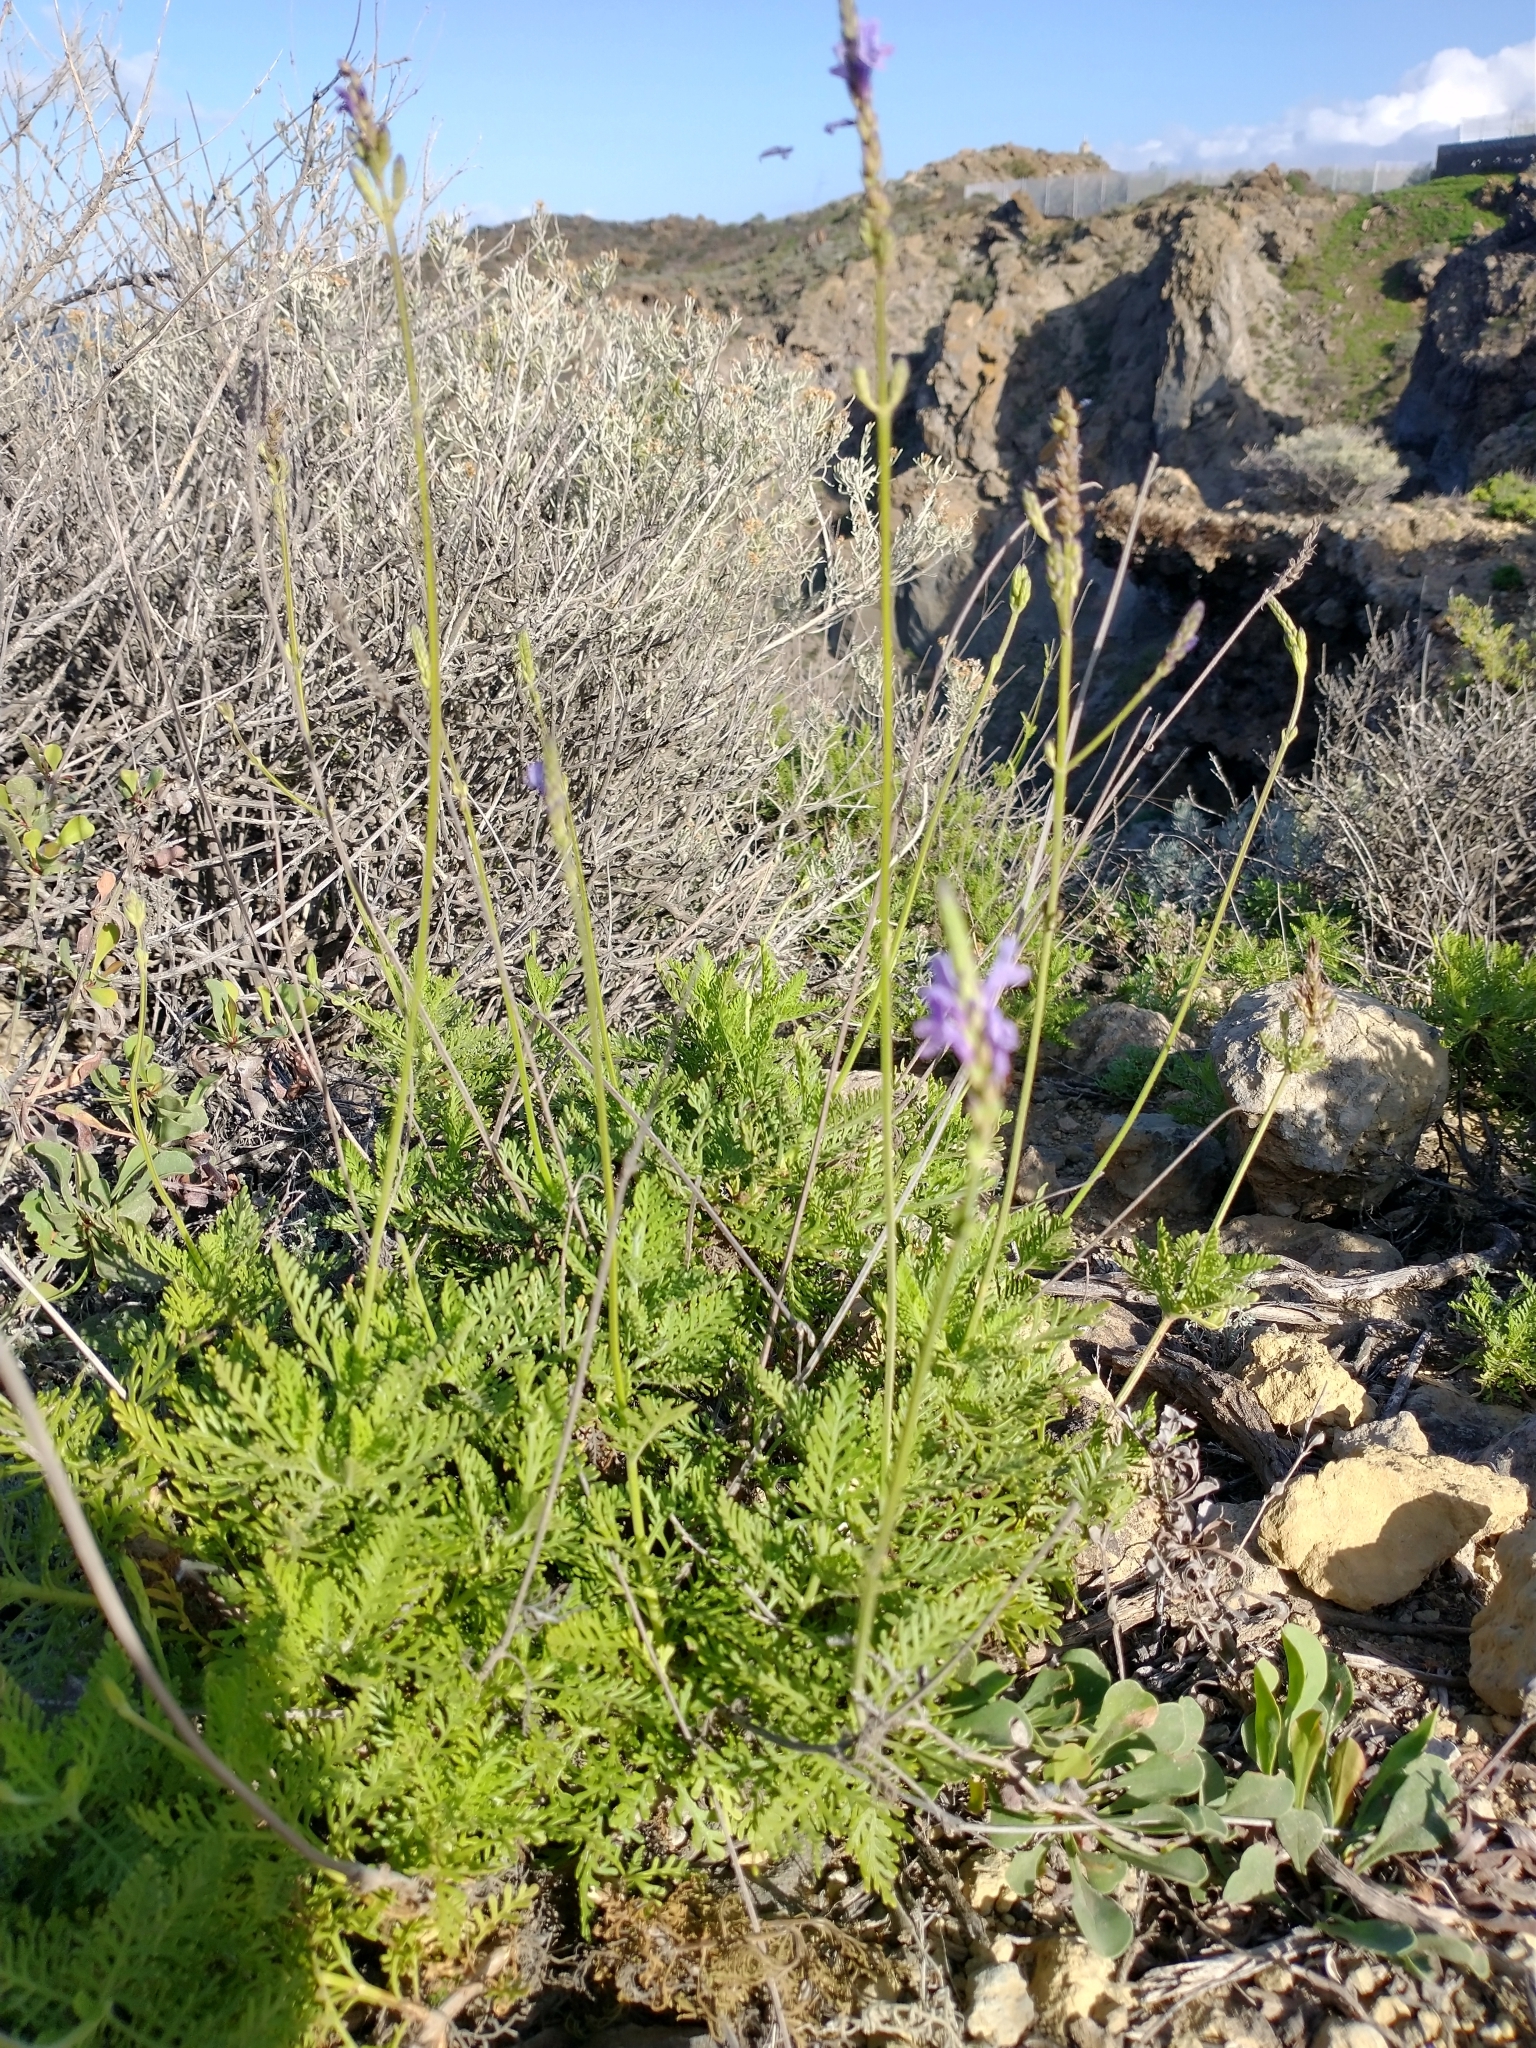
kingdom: Plantae
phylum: Tracheophyta
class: Magnoliopsida
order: Lamiales
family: Lamiaceae
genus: Lavandula
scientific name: Lavandula canariensis
